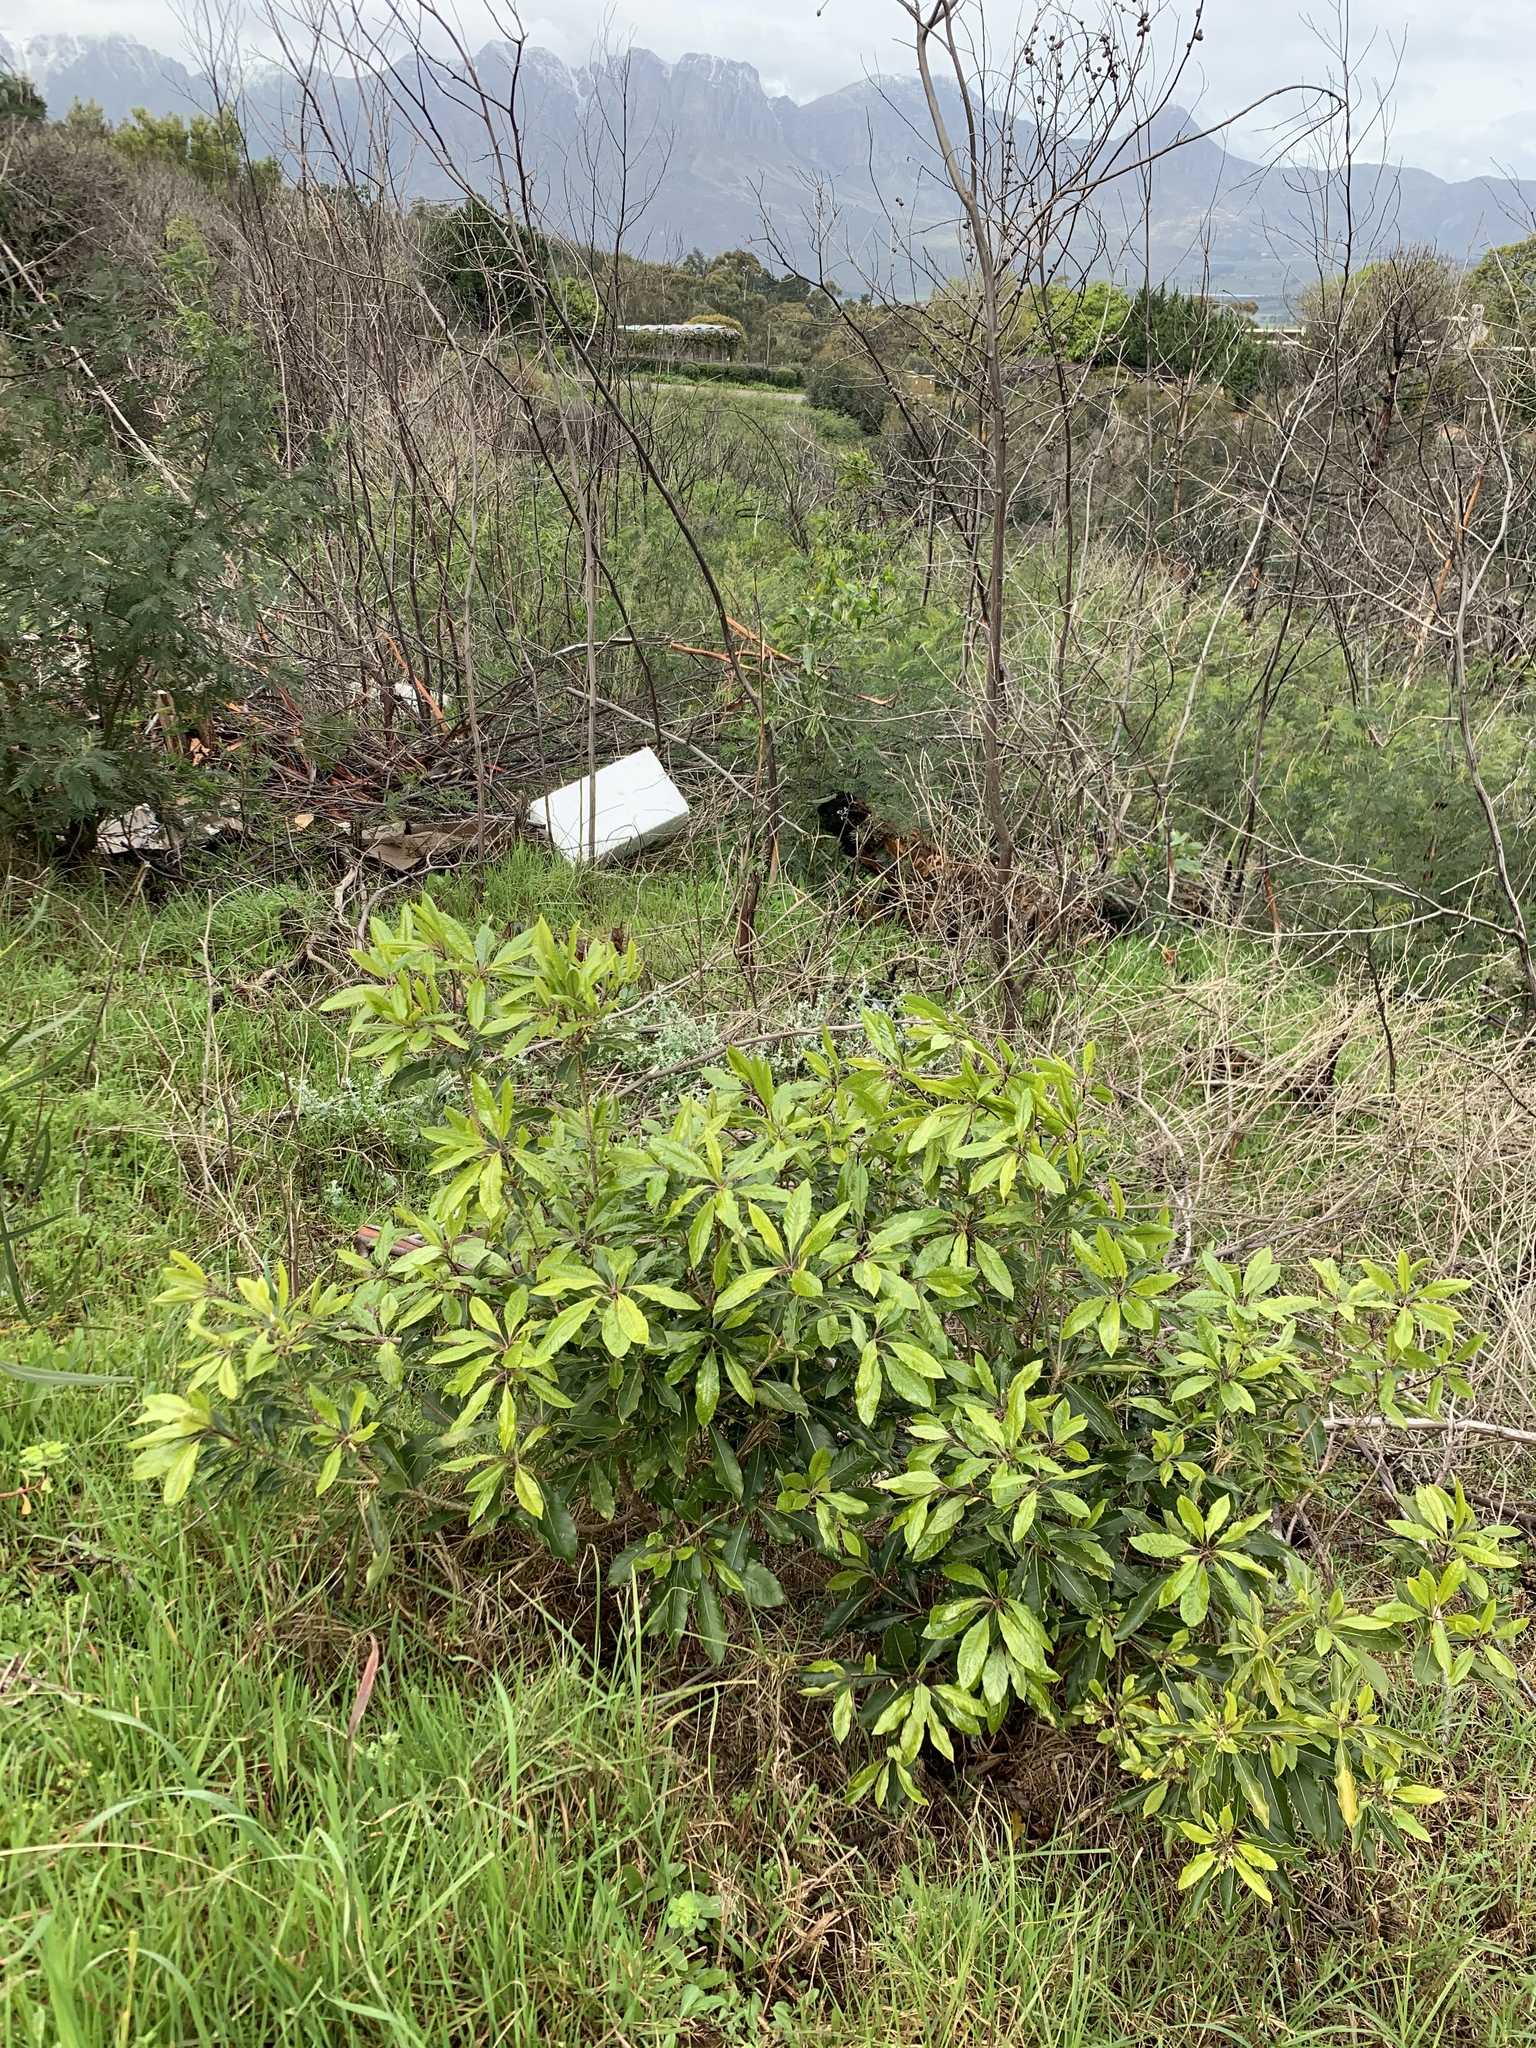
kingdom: Plantae
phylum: Tracheophyta
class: Magnoliopsida
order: Apiales
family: Pittosporaceae
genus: Pittosporum
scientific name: Pittosporum undulatum
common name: Australian cheesewood
